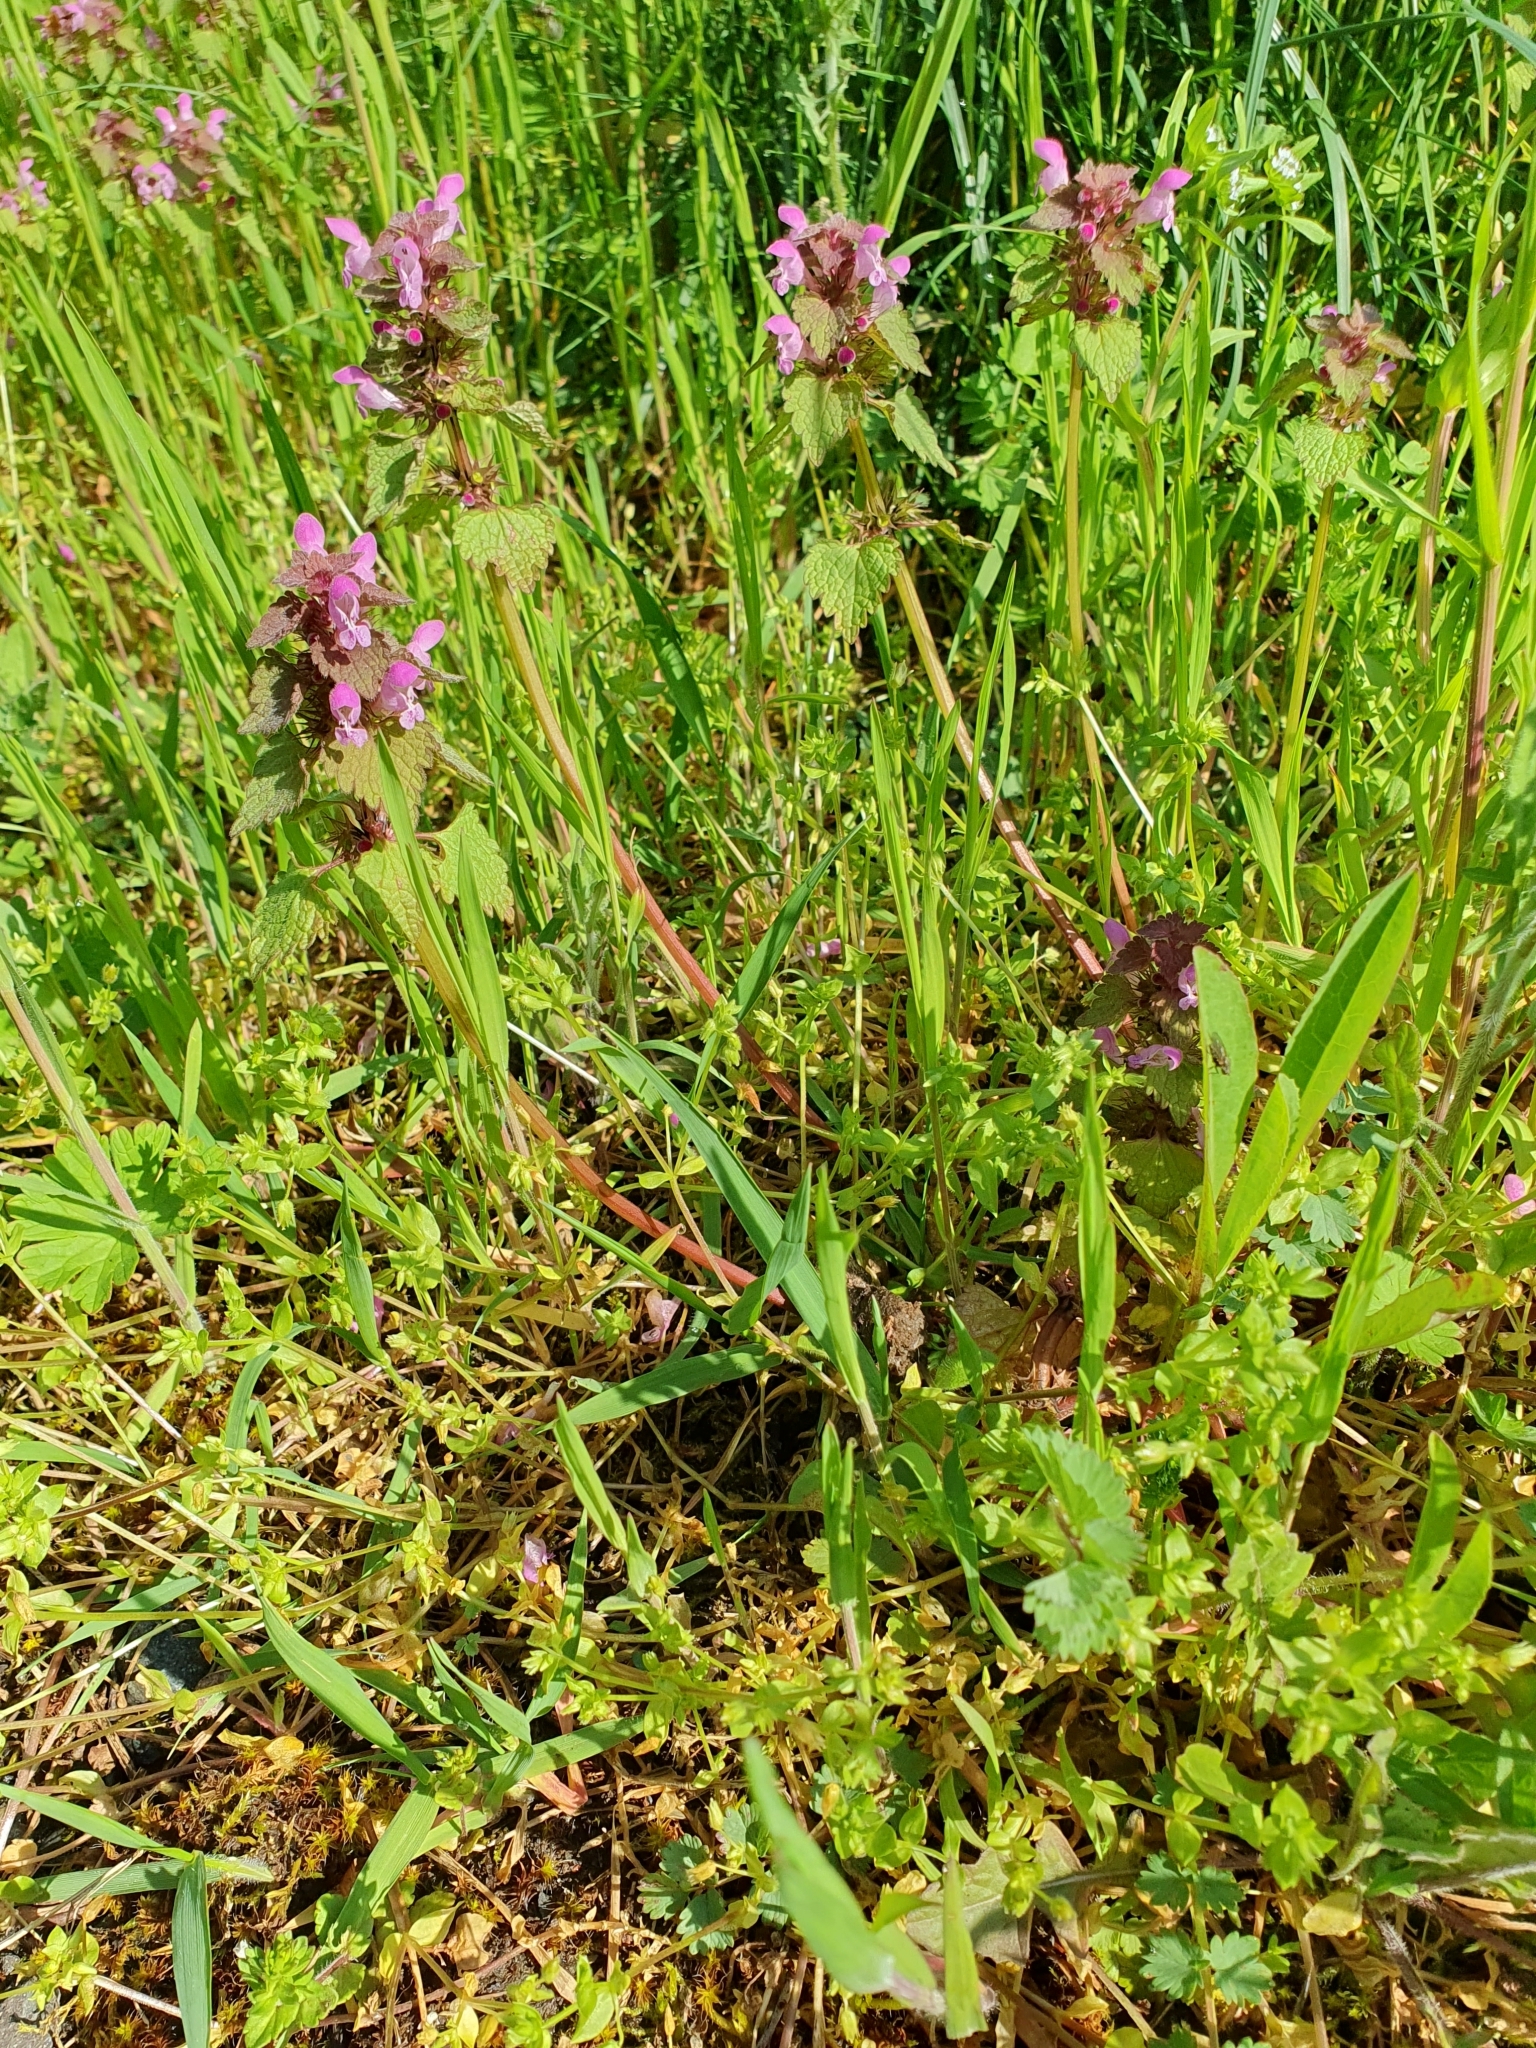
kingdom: Plantae
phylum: Tracheophyta
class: Magnoliopsida
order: Lamiales
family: Lamiaceae
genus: Lamium
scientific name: Lamium purpureum
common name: Red dead-nettle
